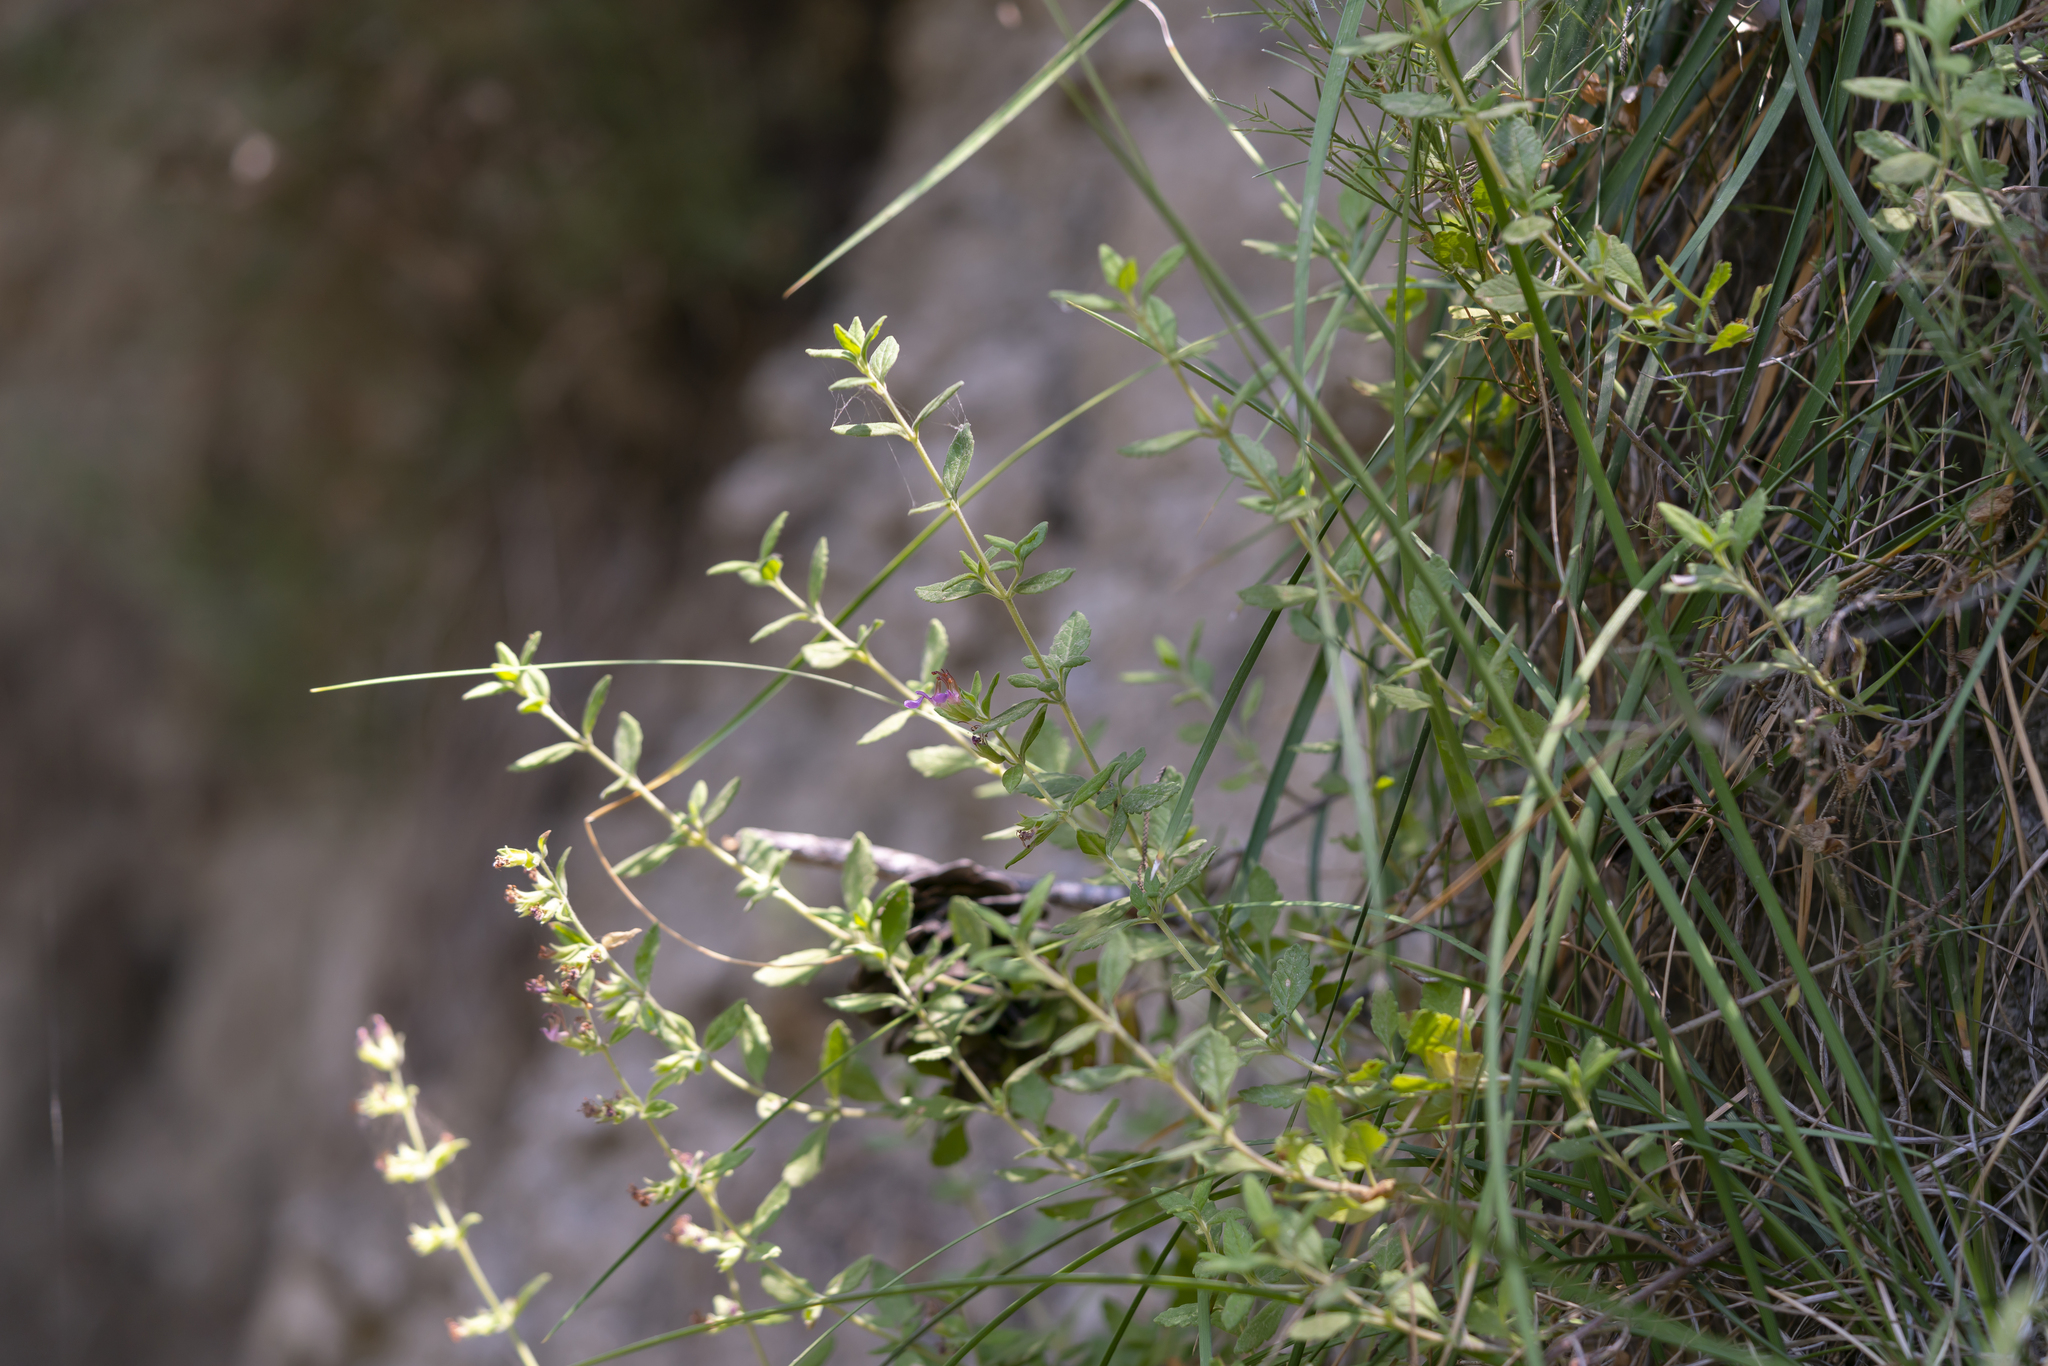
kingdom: Plantae
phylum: Tracheophyta
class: Magnoliopsida
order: Lamiales
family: Lamiaceae
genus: Teucrium
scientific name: Teucrium divaricatum
